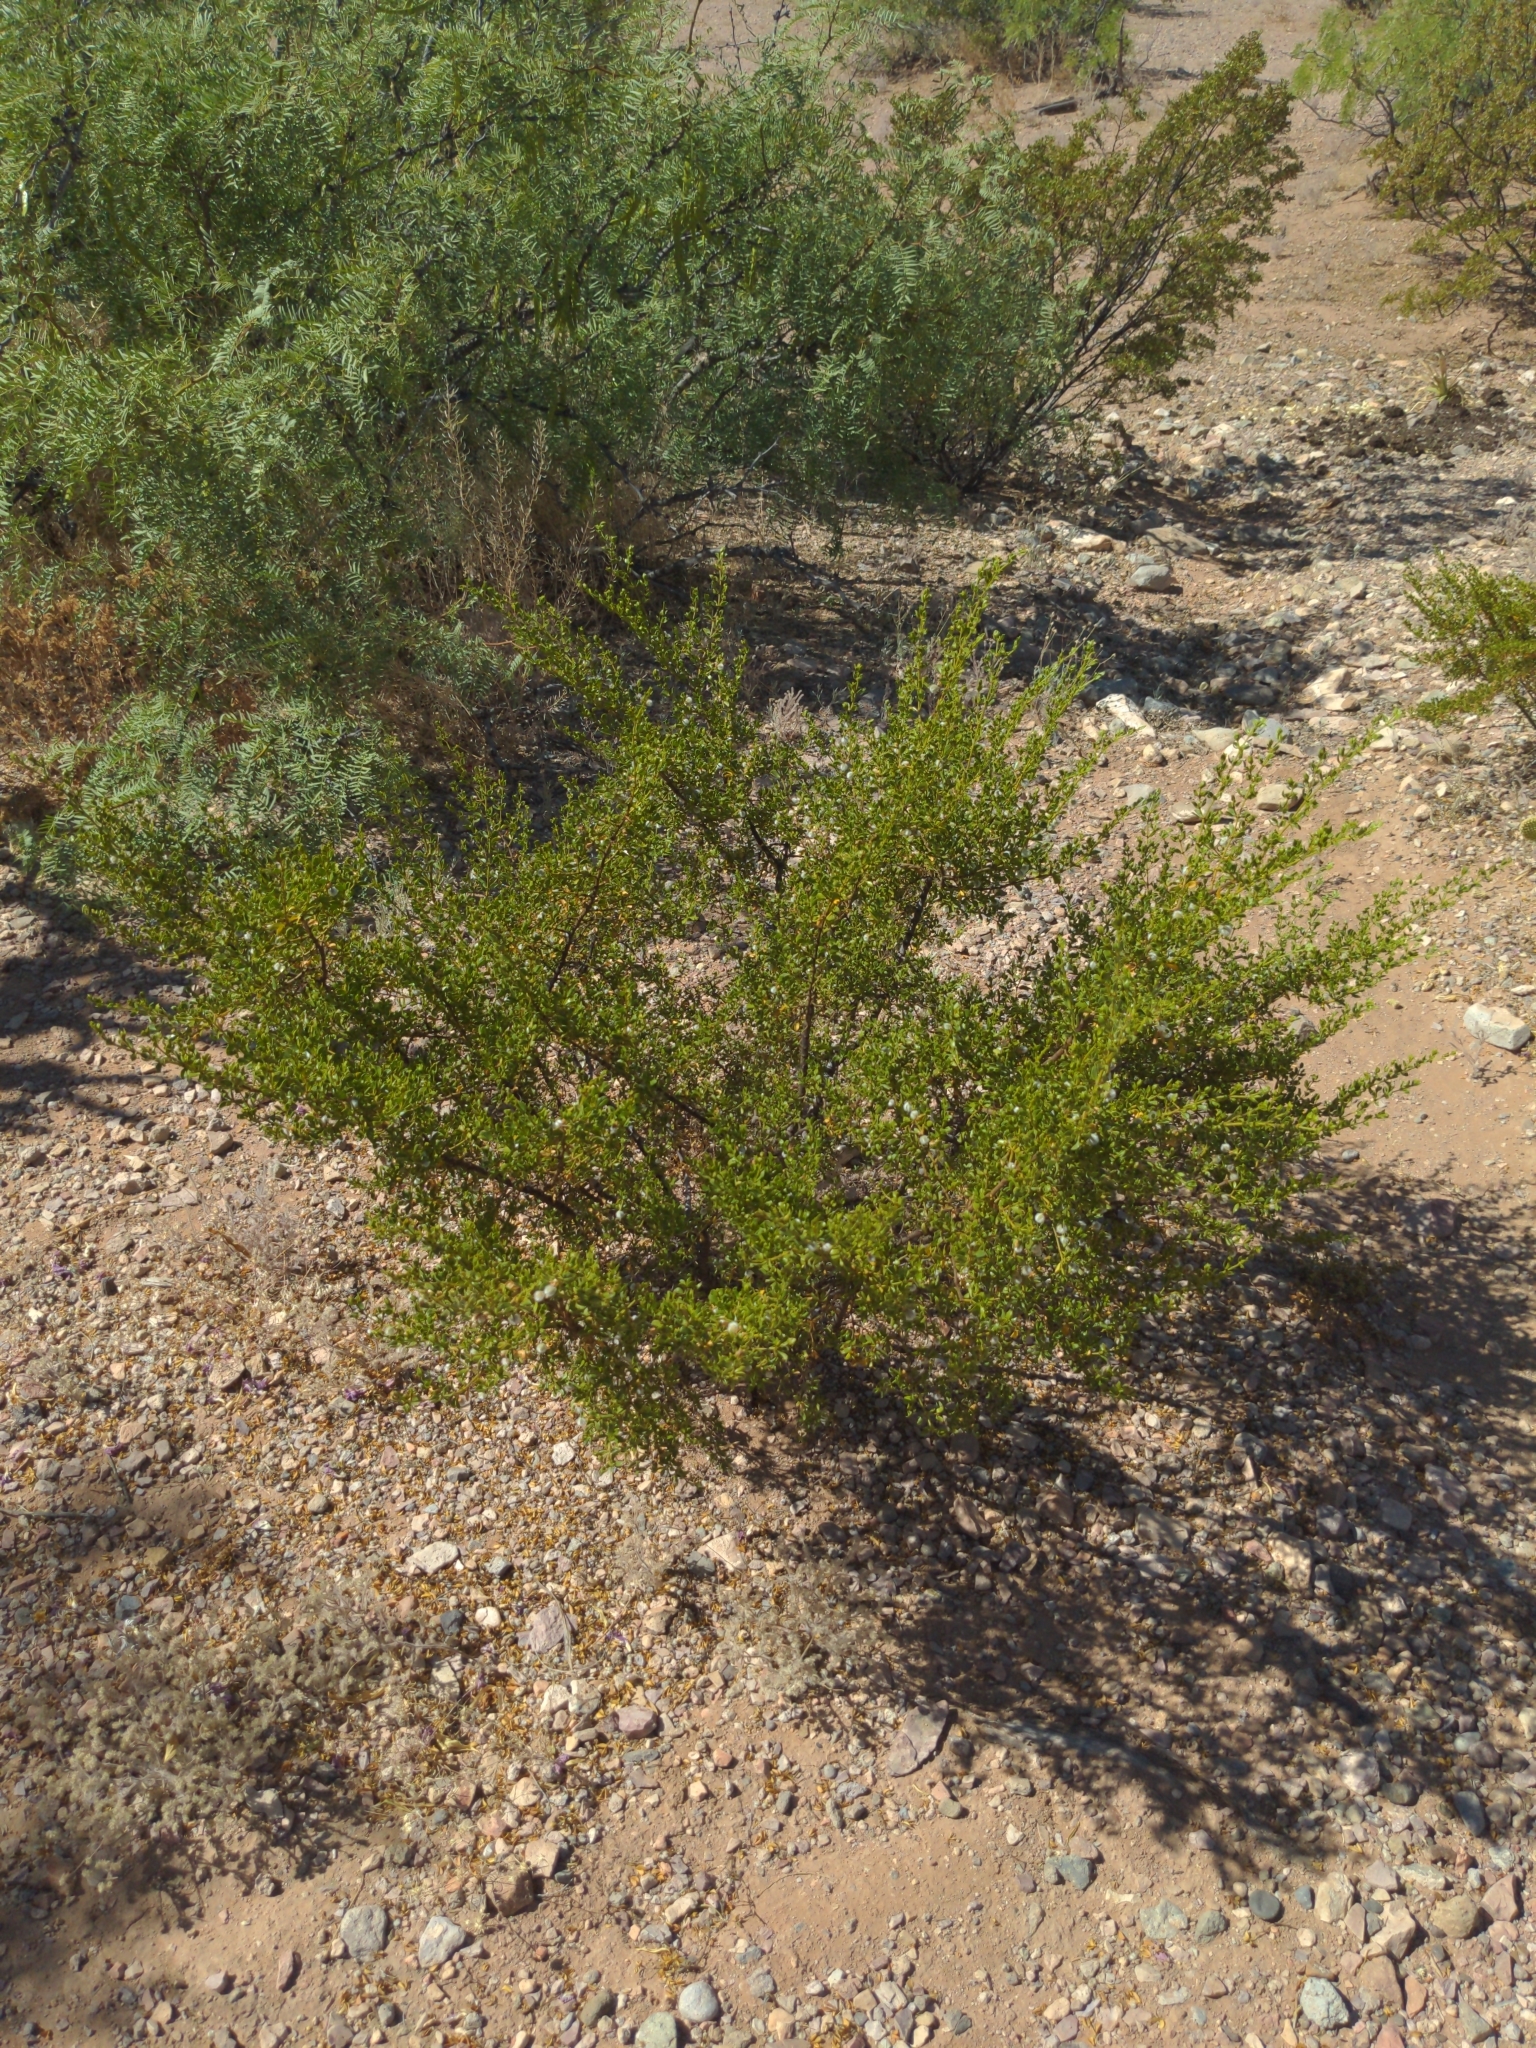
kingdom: Plantae
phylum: Tracheophyta
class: Magnoliopsida
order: Zygophyllales
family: Zygophyllaceae
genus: Larrea
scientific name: Larrea tridentata
